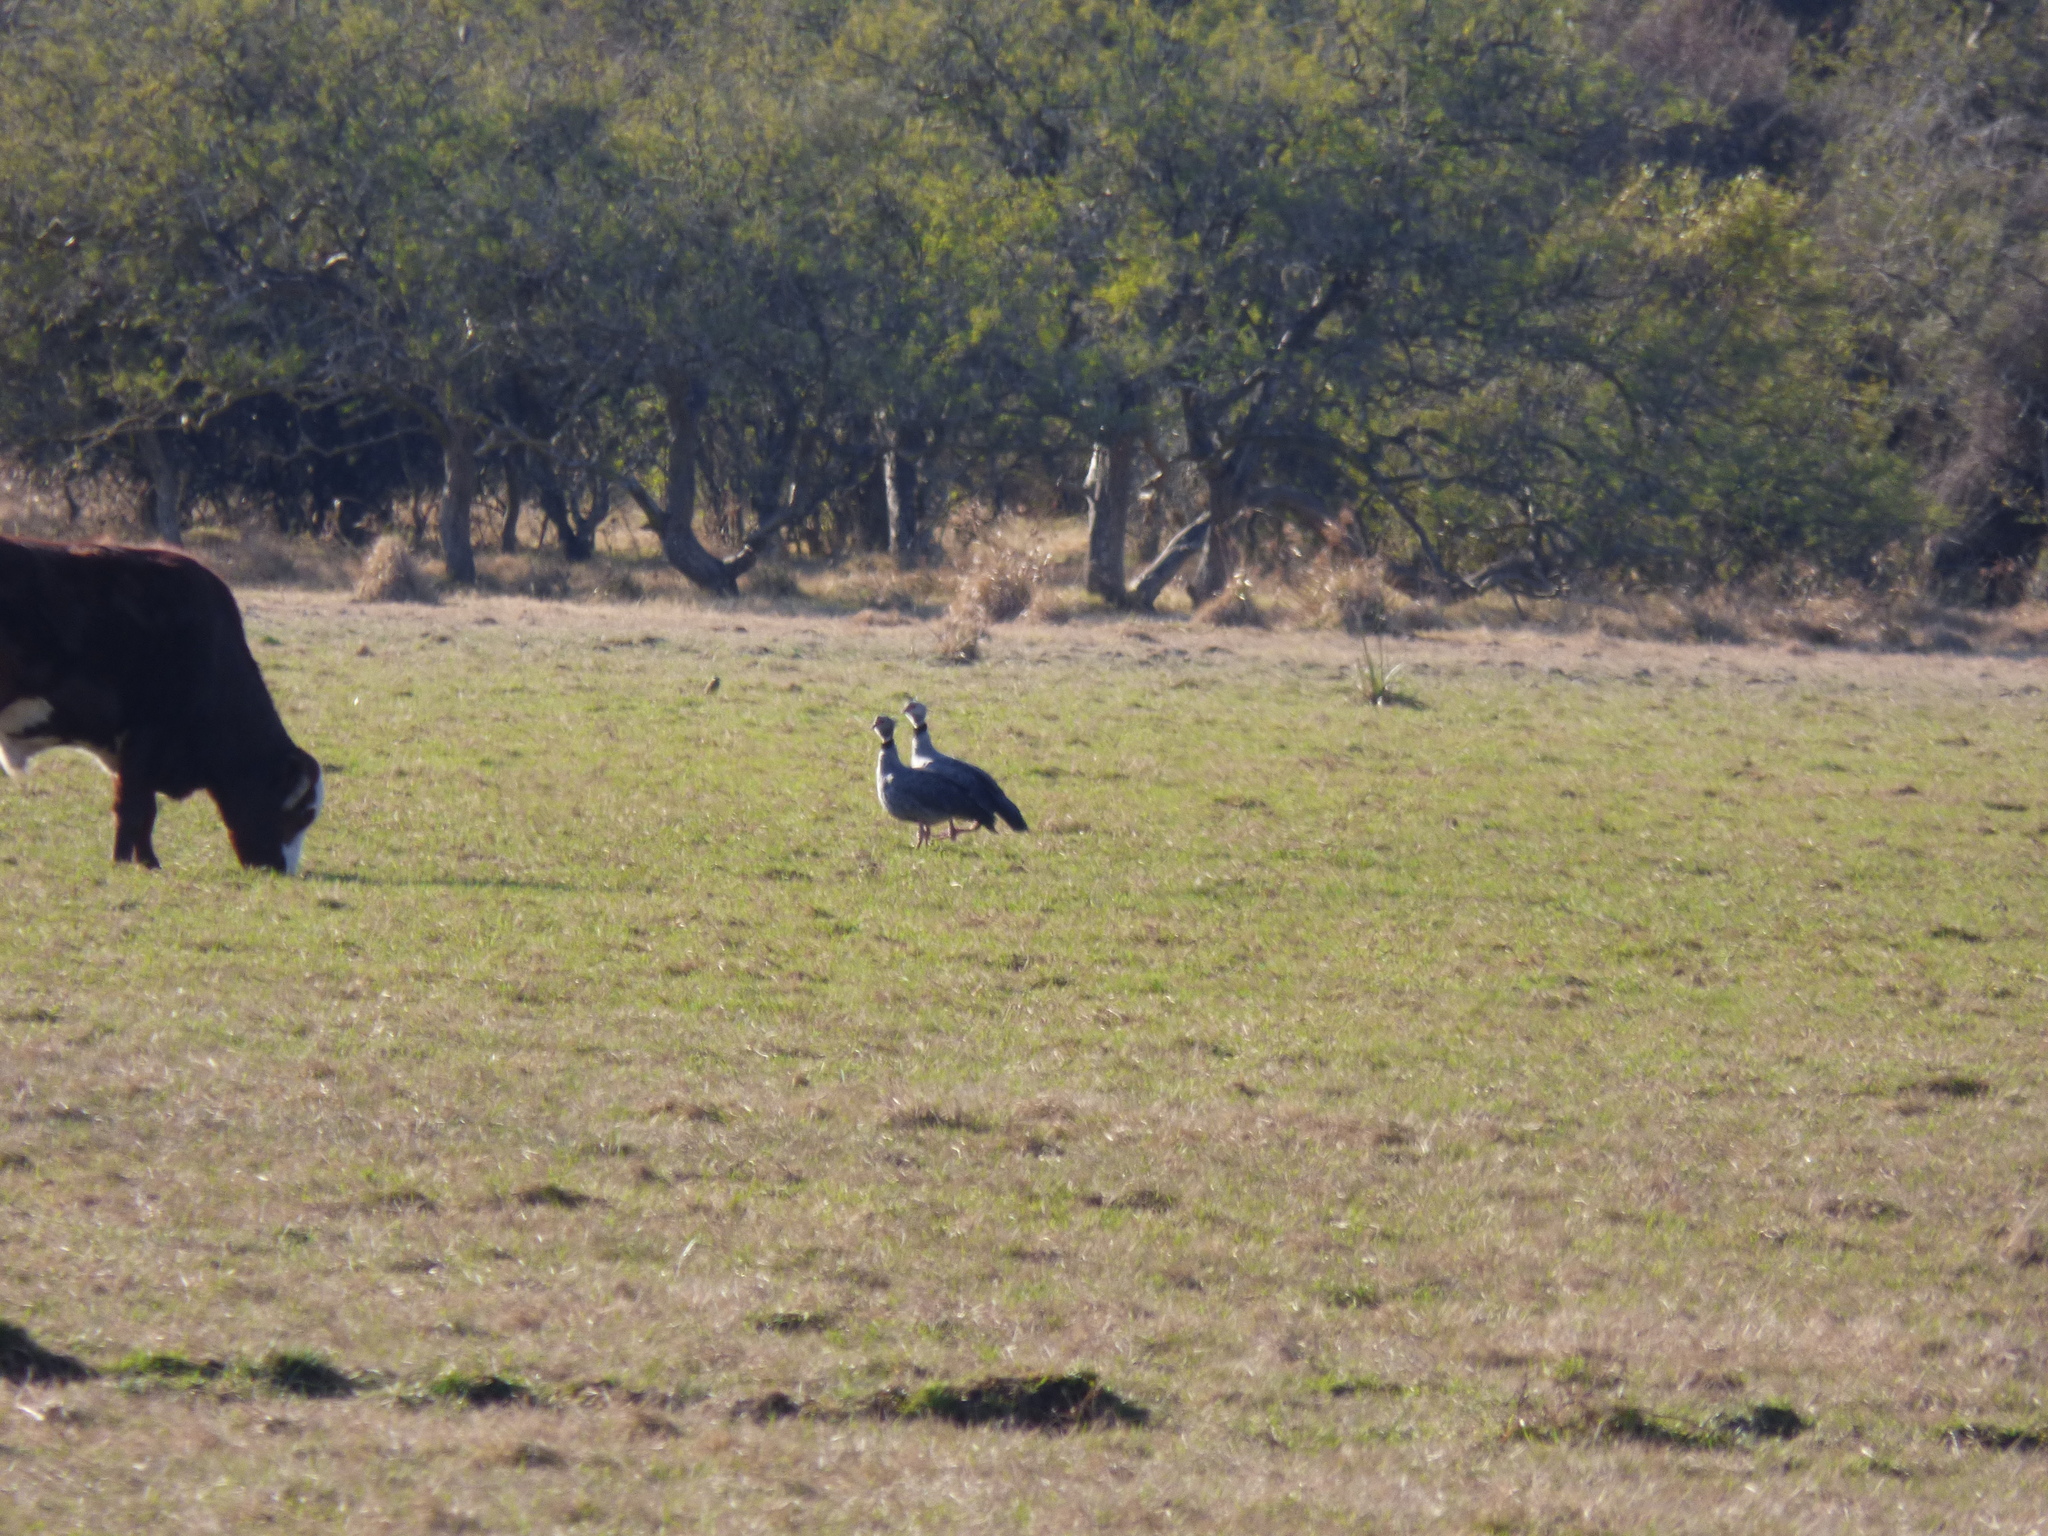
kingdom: Animalia
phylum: Chordata
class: Aves
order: Anseriformes
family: Anhimidae
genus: Chauna
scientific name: Chauna torquata
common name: Southern screamer
